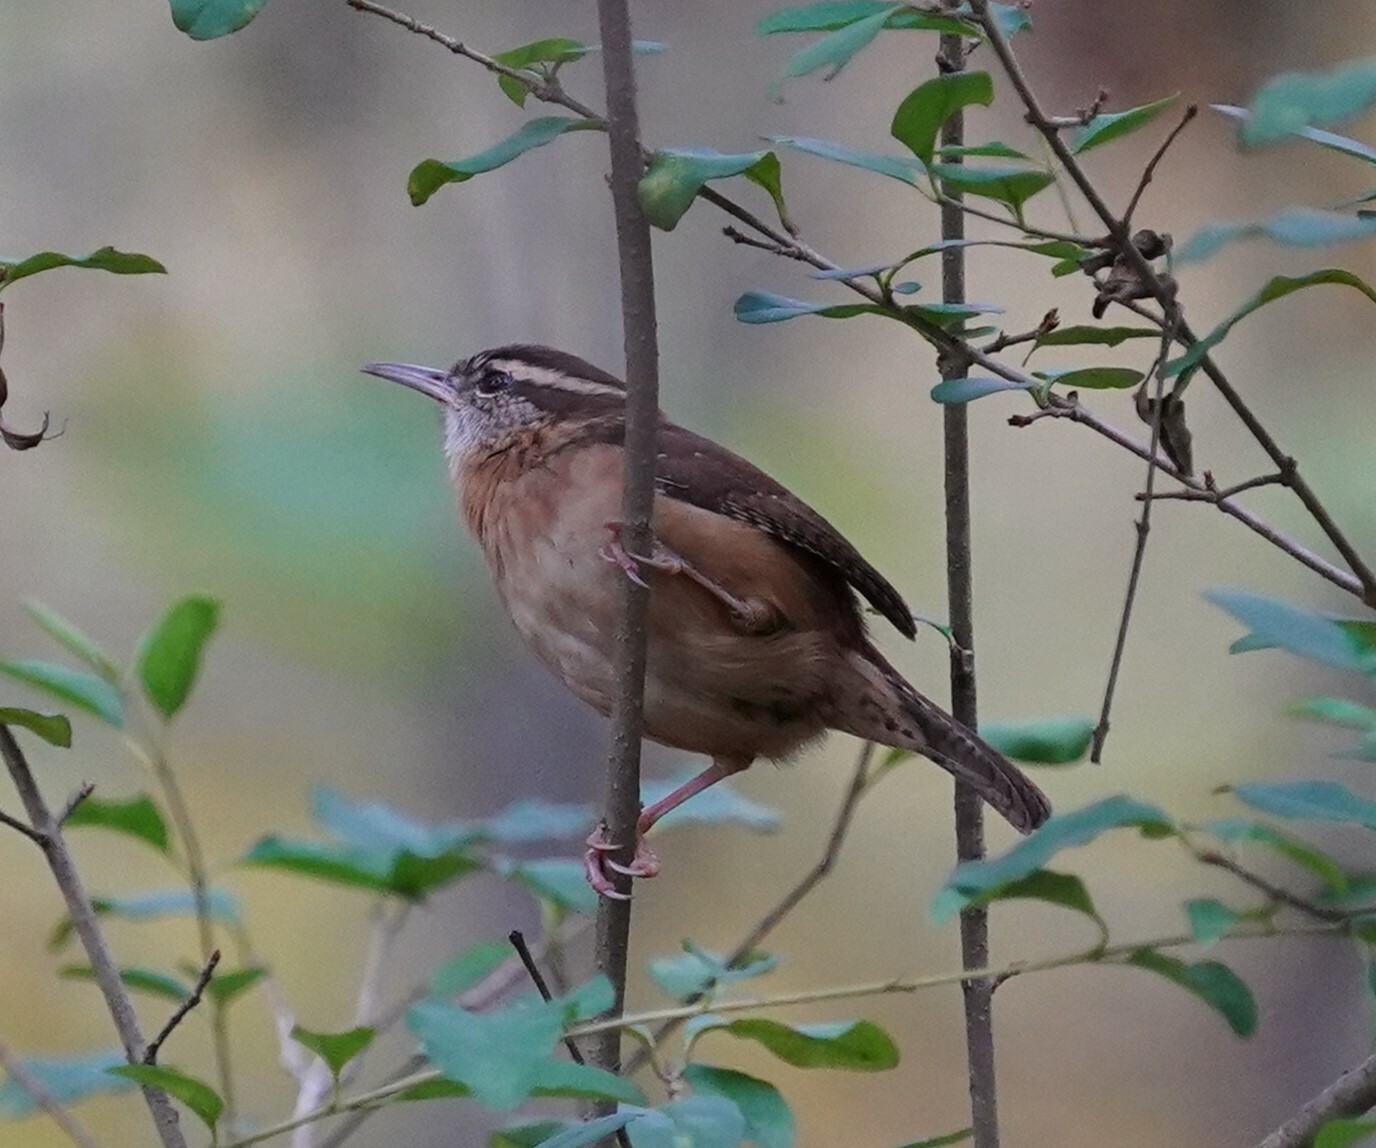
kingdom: Animalia
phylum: Chordata
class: Aves
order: Passeriformes
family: Troglodytidae
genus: Thryothorus
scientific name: Thryothorus ludovicianus
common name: Carolina wren
